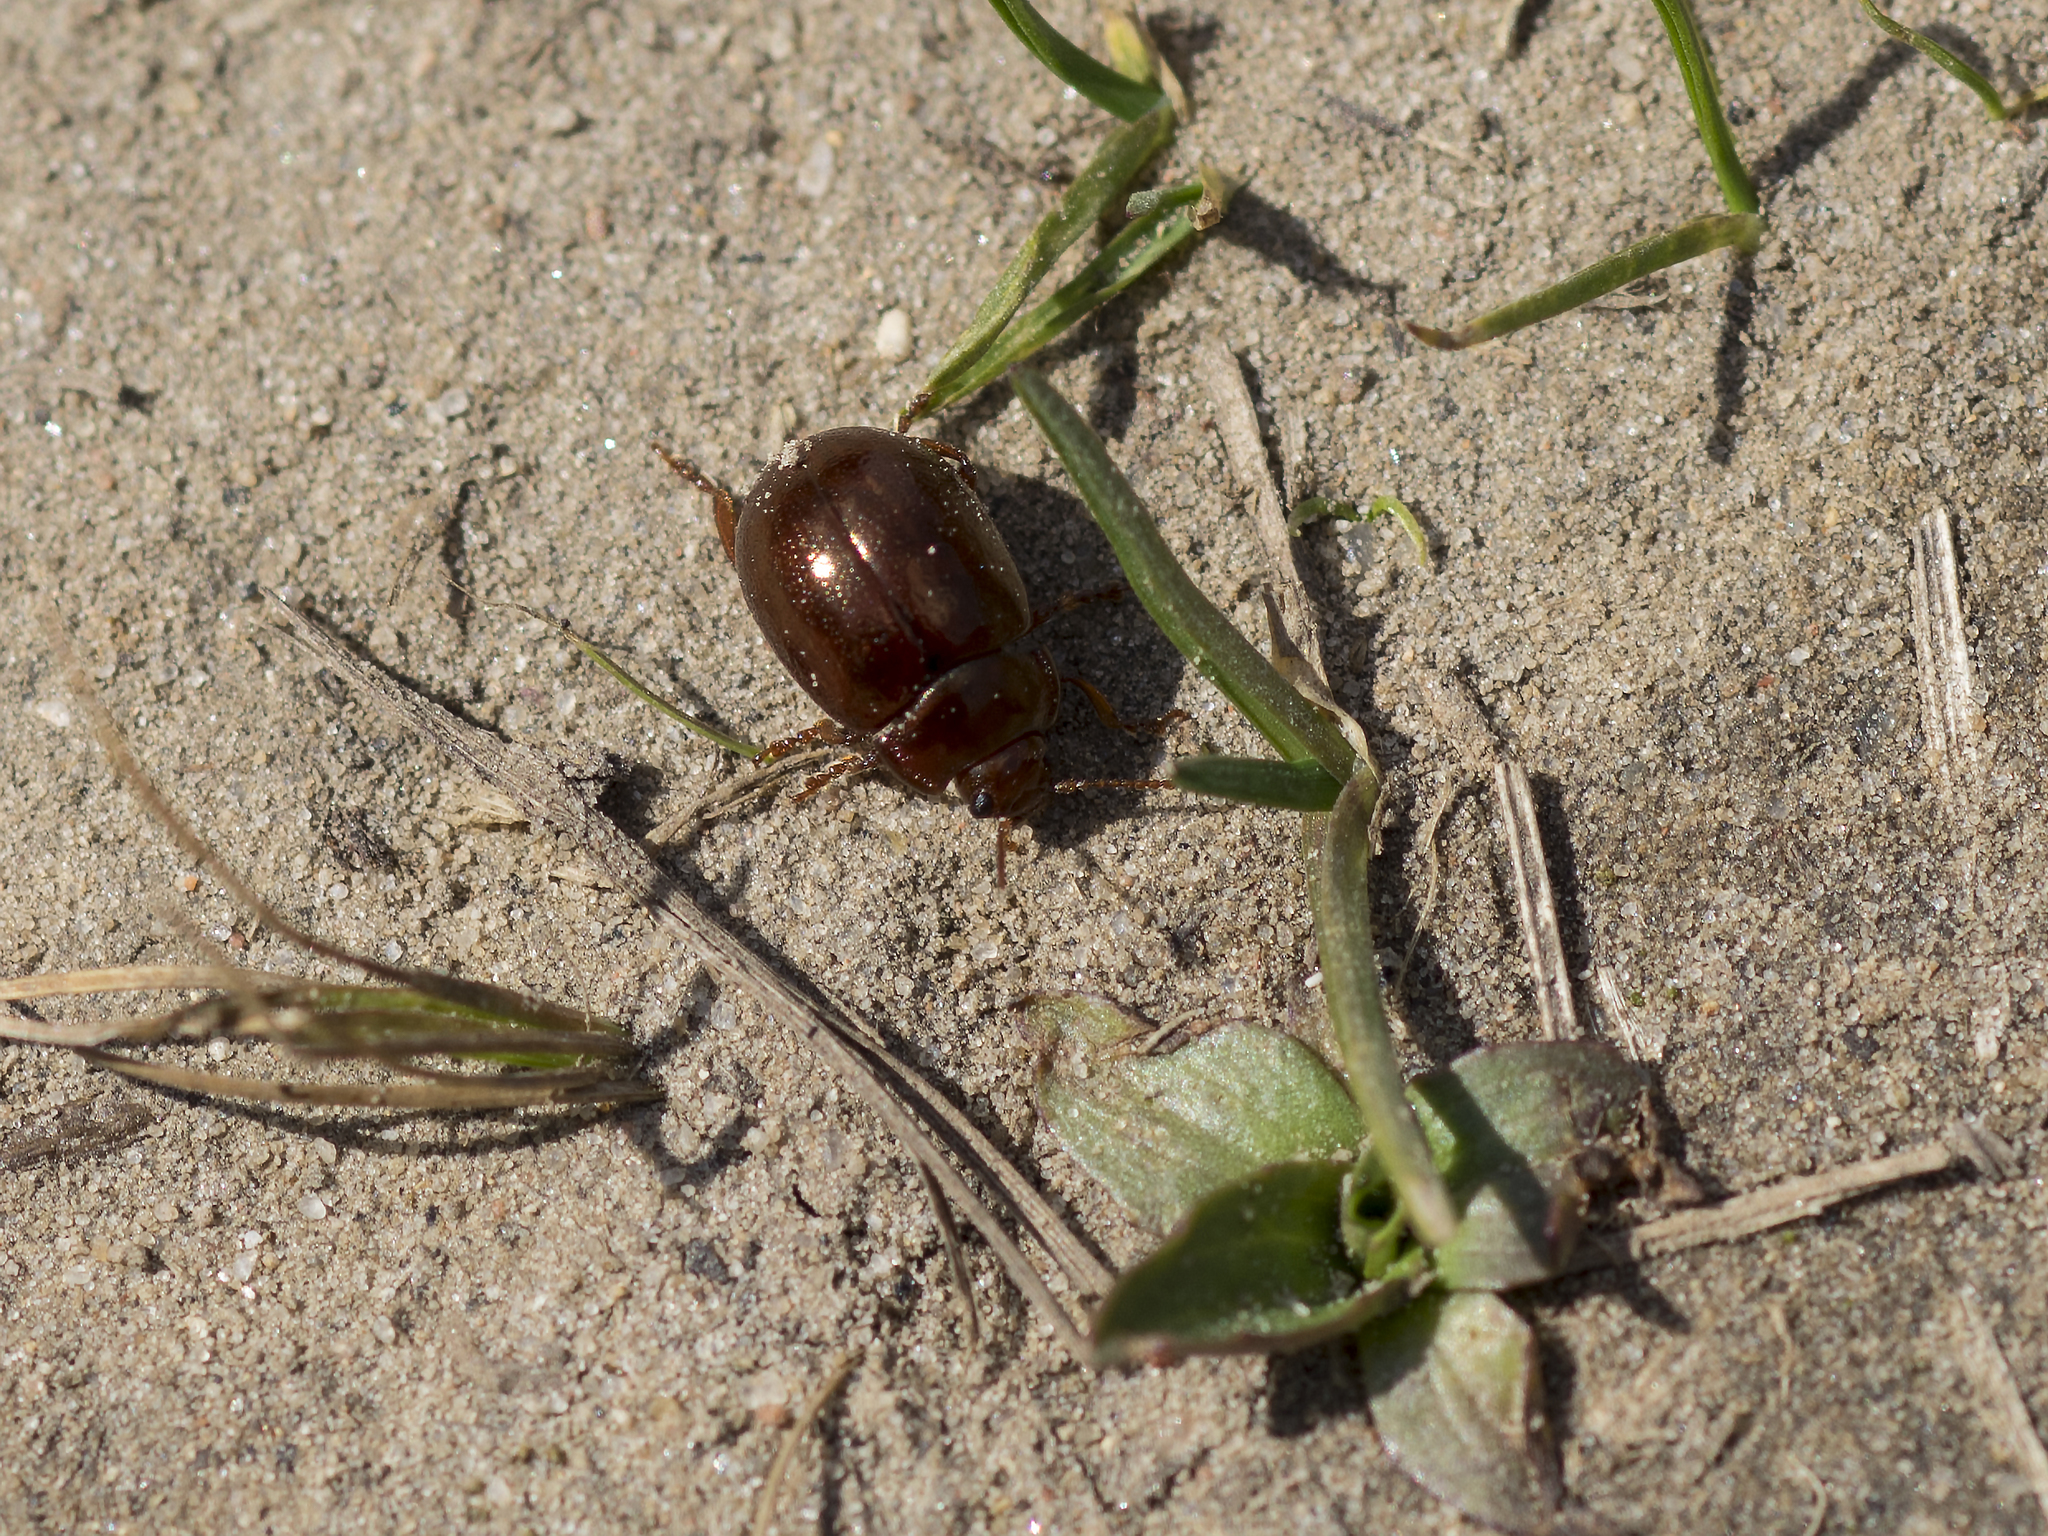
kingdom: Animalia
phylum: Arthropoda
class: Insecta
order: Coleoptera
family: Chrysomelidae
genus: Chrysolina
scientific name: Chrysolina staphylaea
